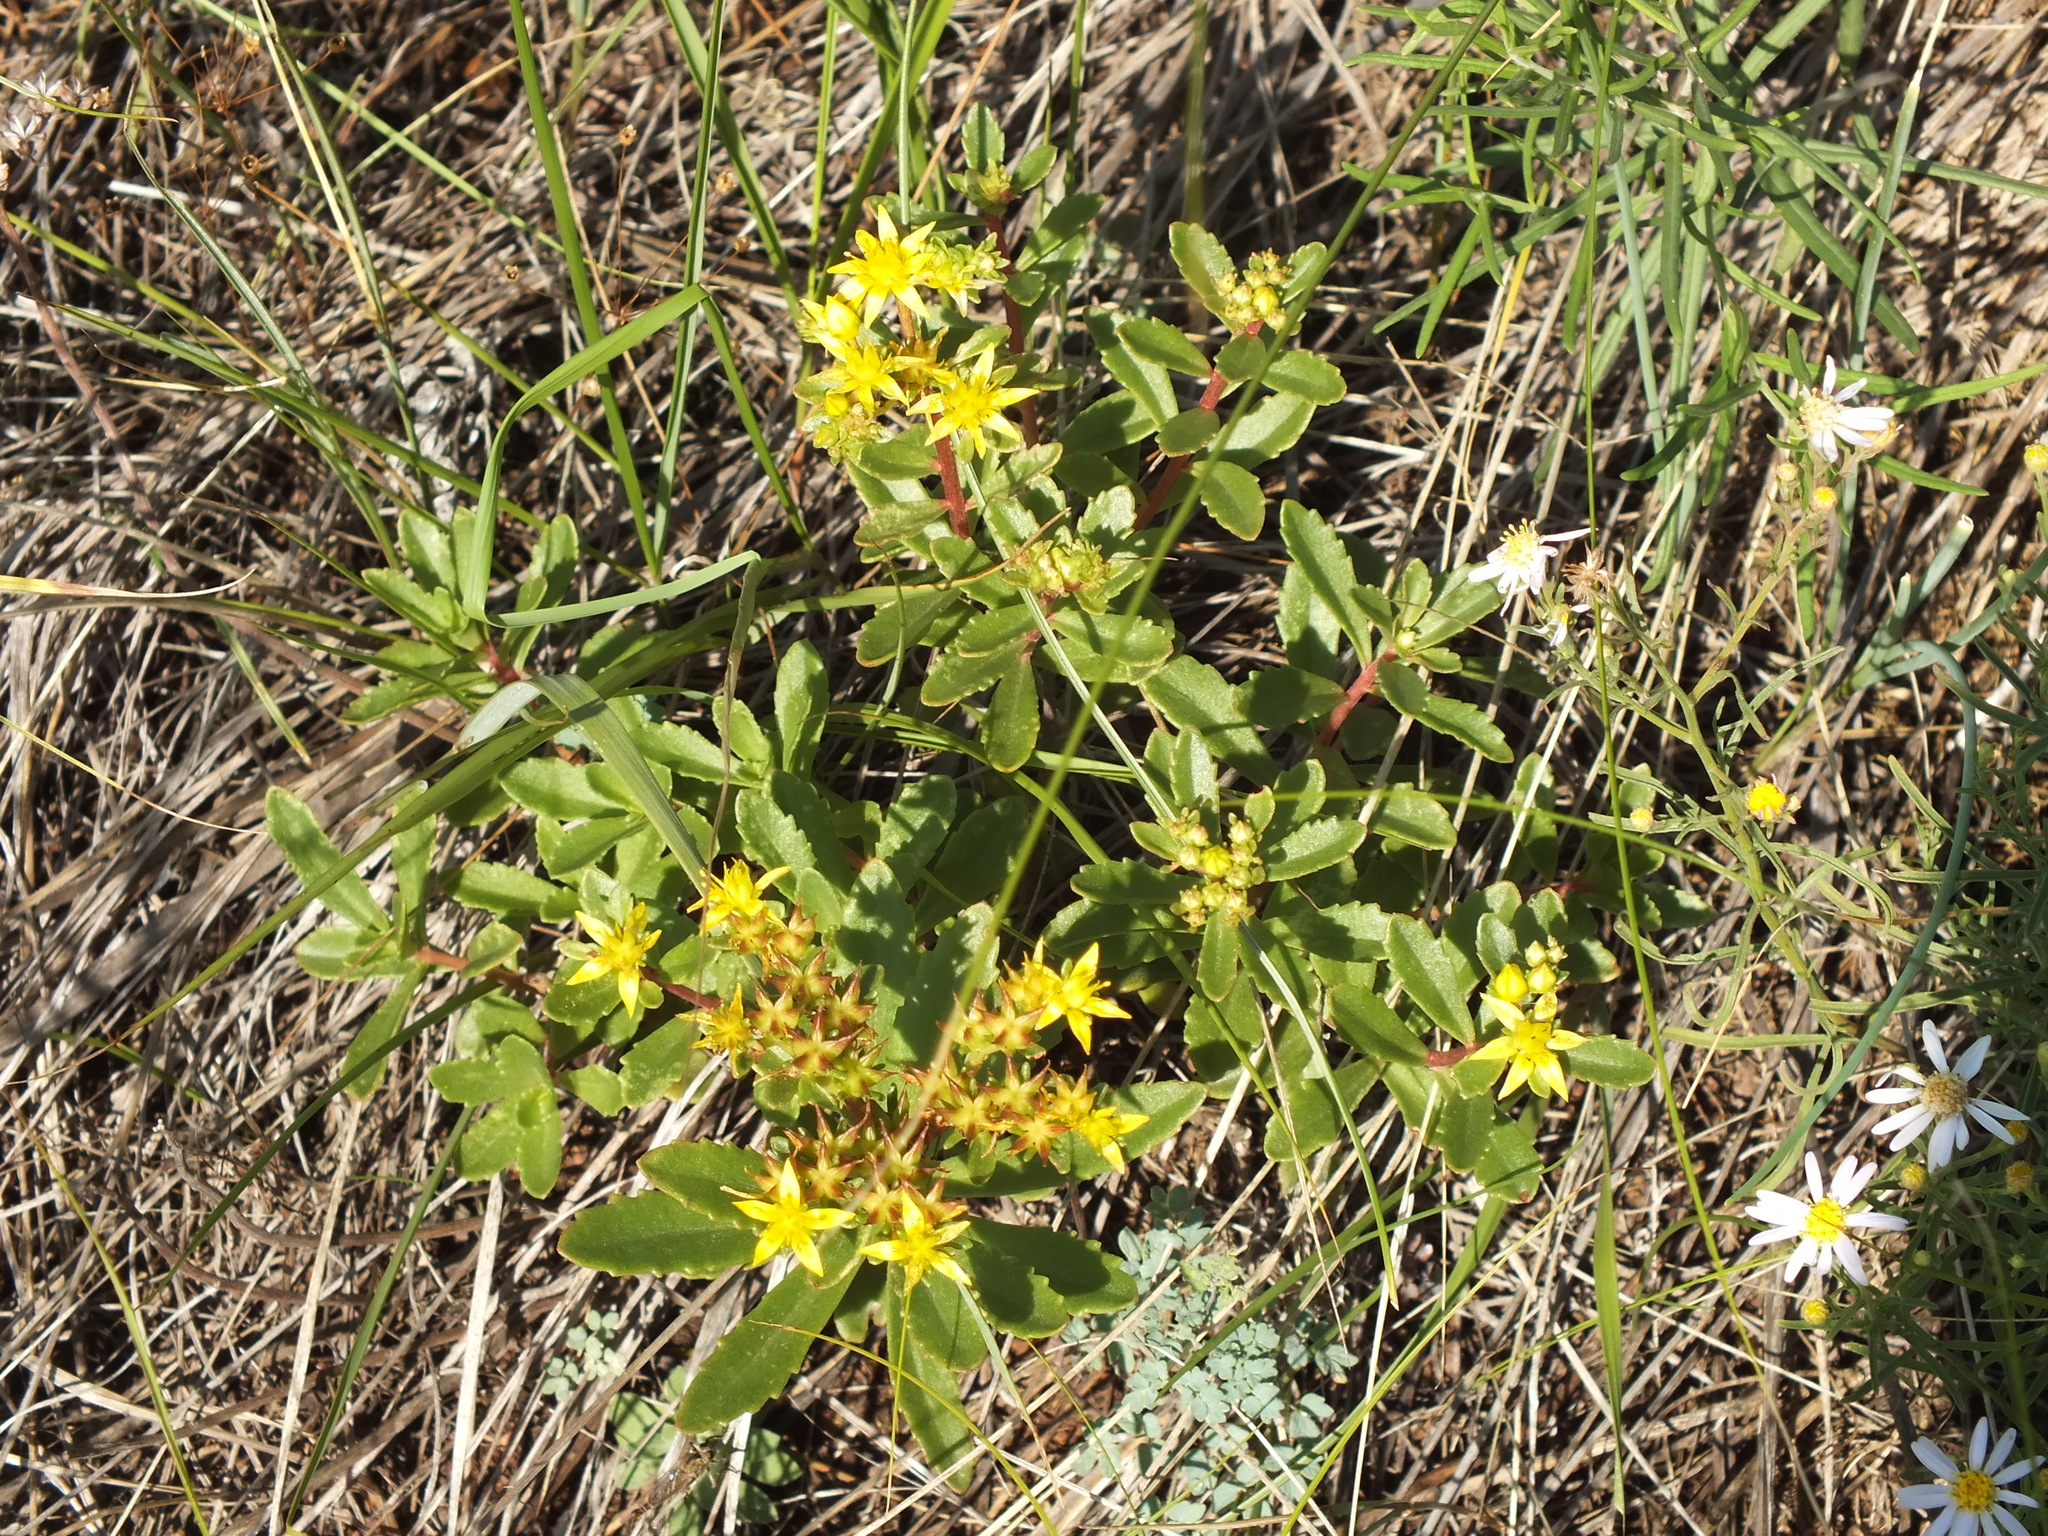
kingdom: Plantae
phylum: Tracheophyta
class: Magnoliopsida
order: Saxifragales
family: Crassulaceae
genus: Phedimus
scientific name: Phedimus hybridus
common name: Hybrid stonecrop
